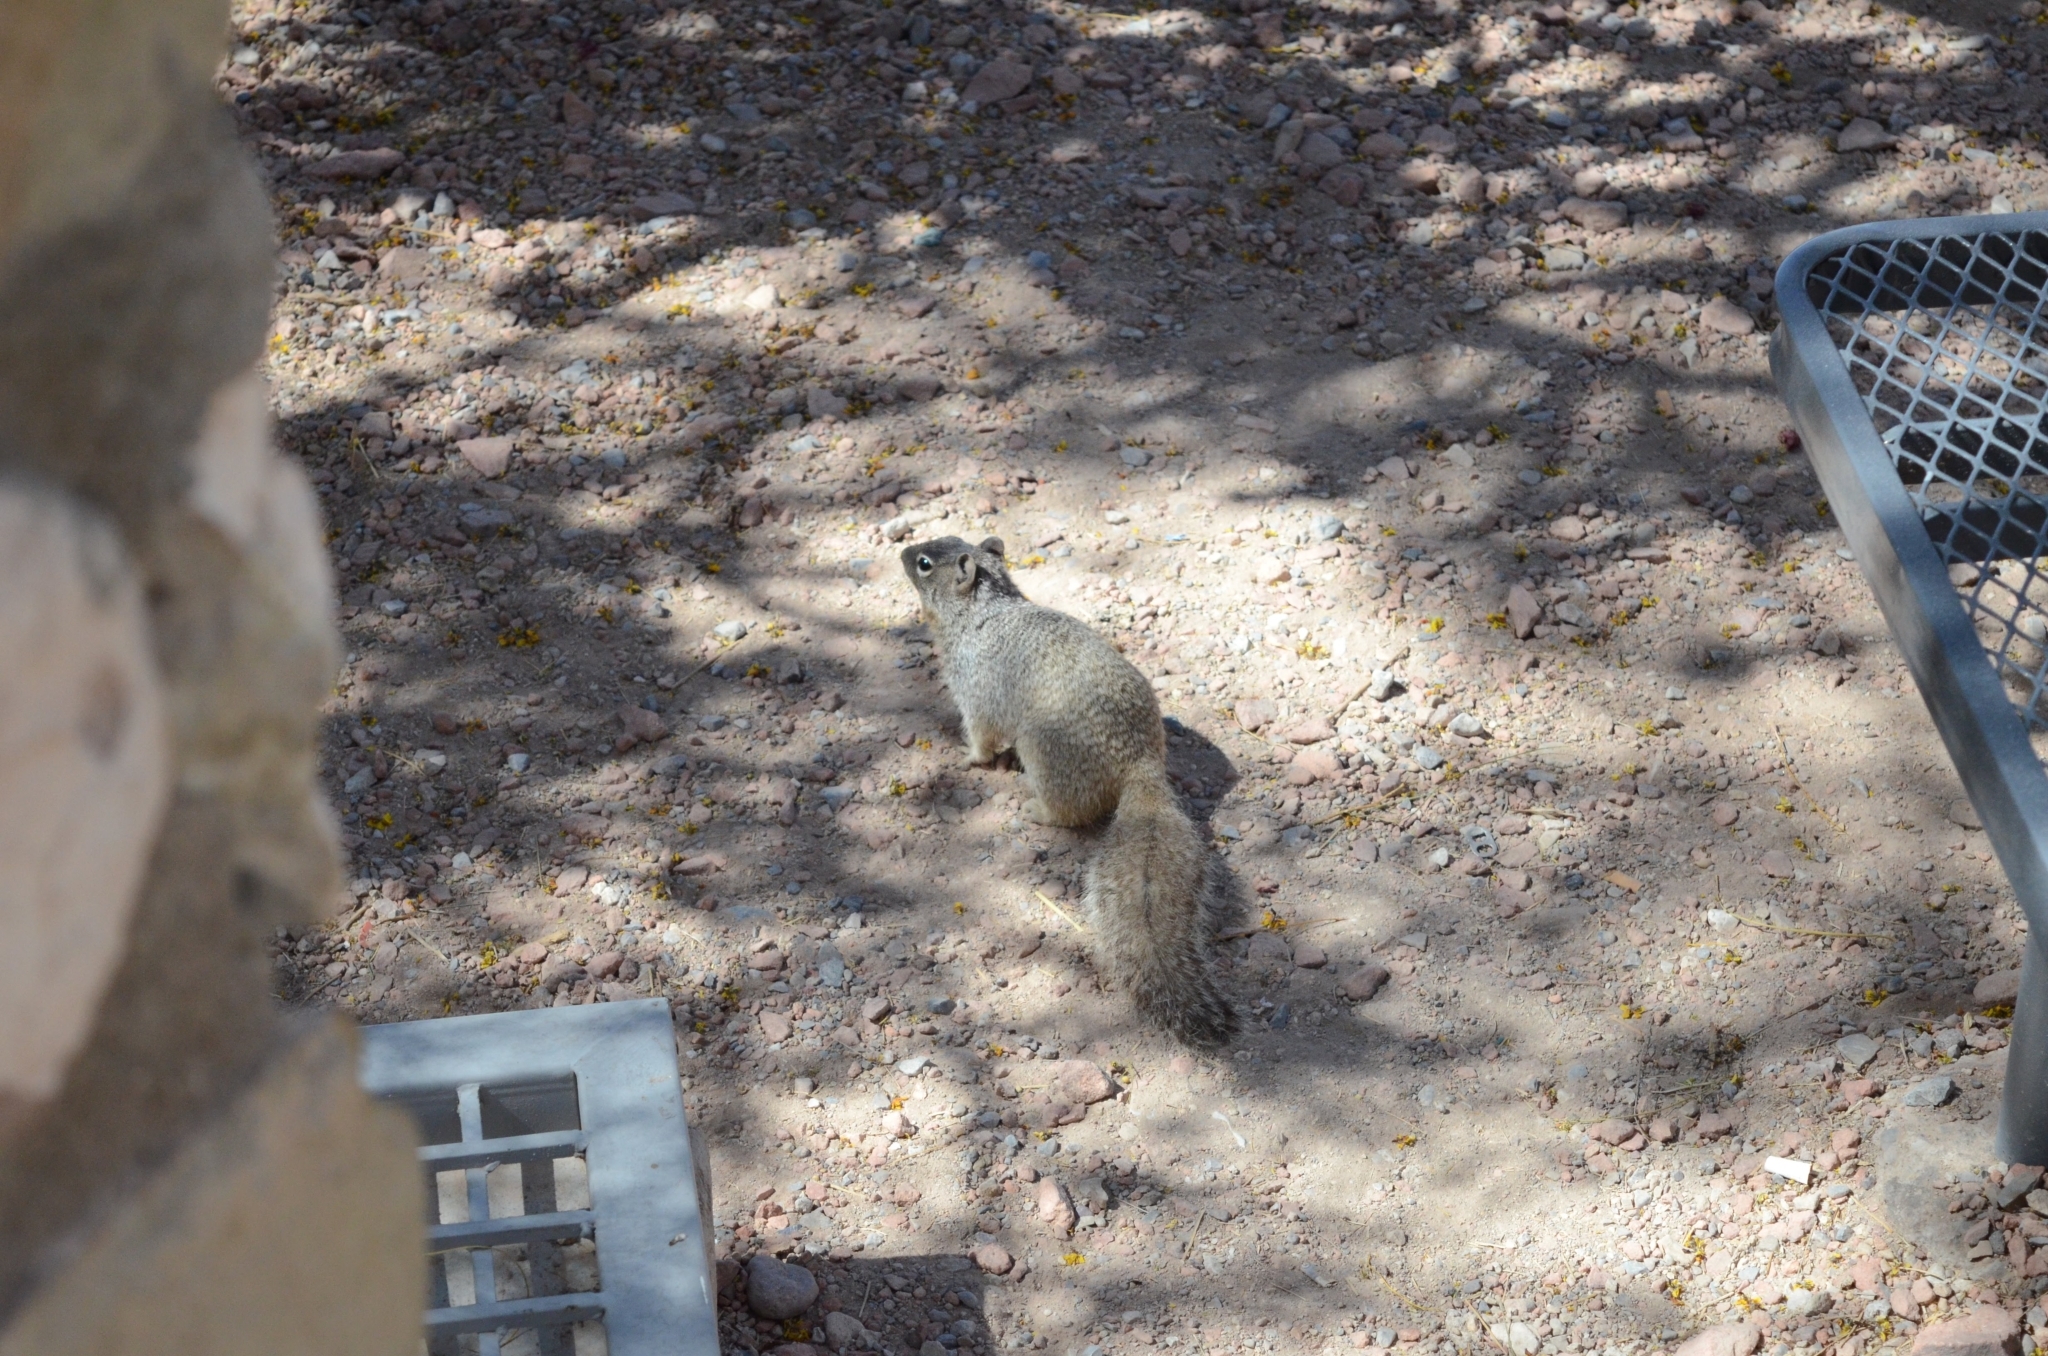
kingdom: Animalia
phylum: Chordata
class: Mammalia
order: Rodentia
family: Sciuridae
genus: Otospermophilus
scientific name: Otospermophilus variegatus
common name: Rock squirrel
